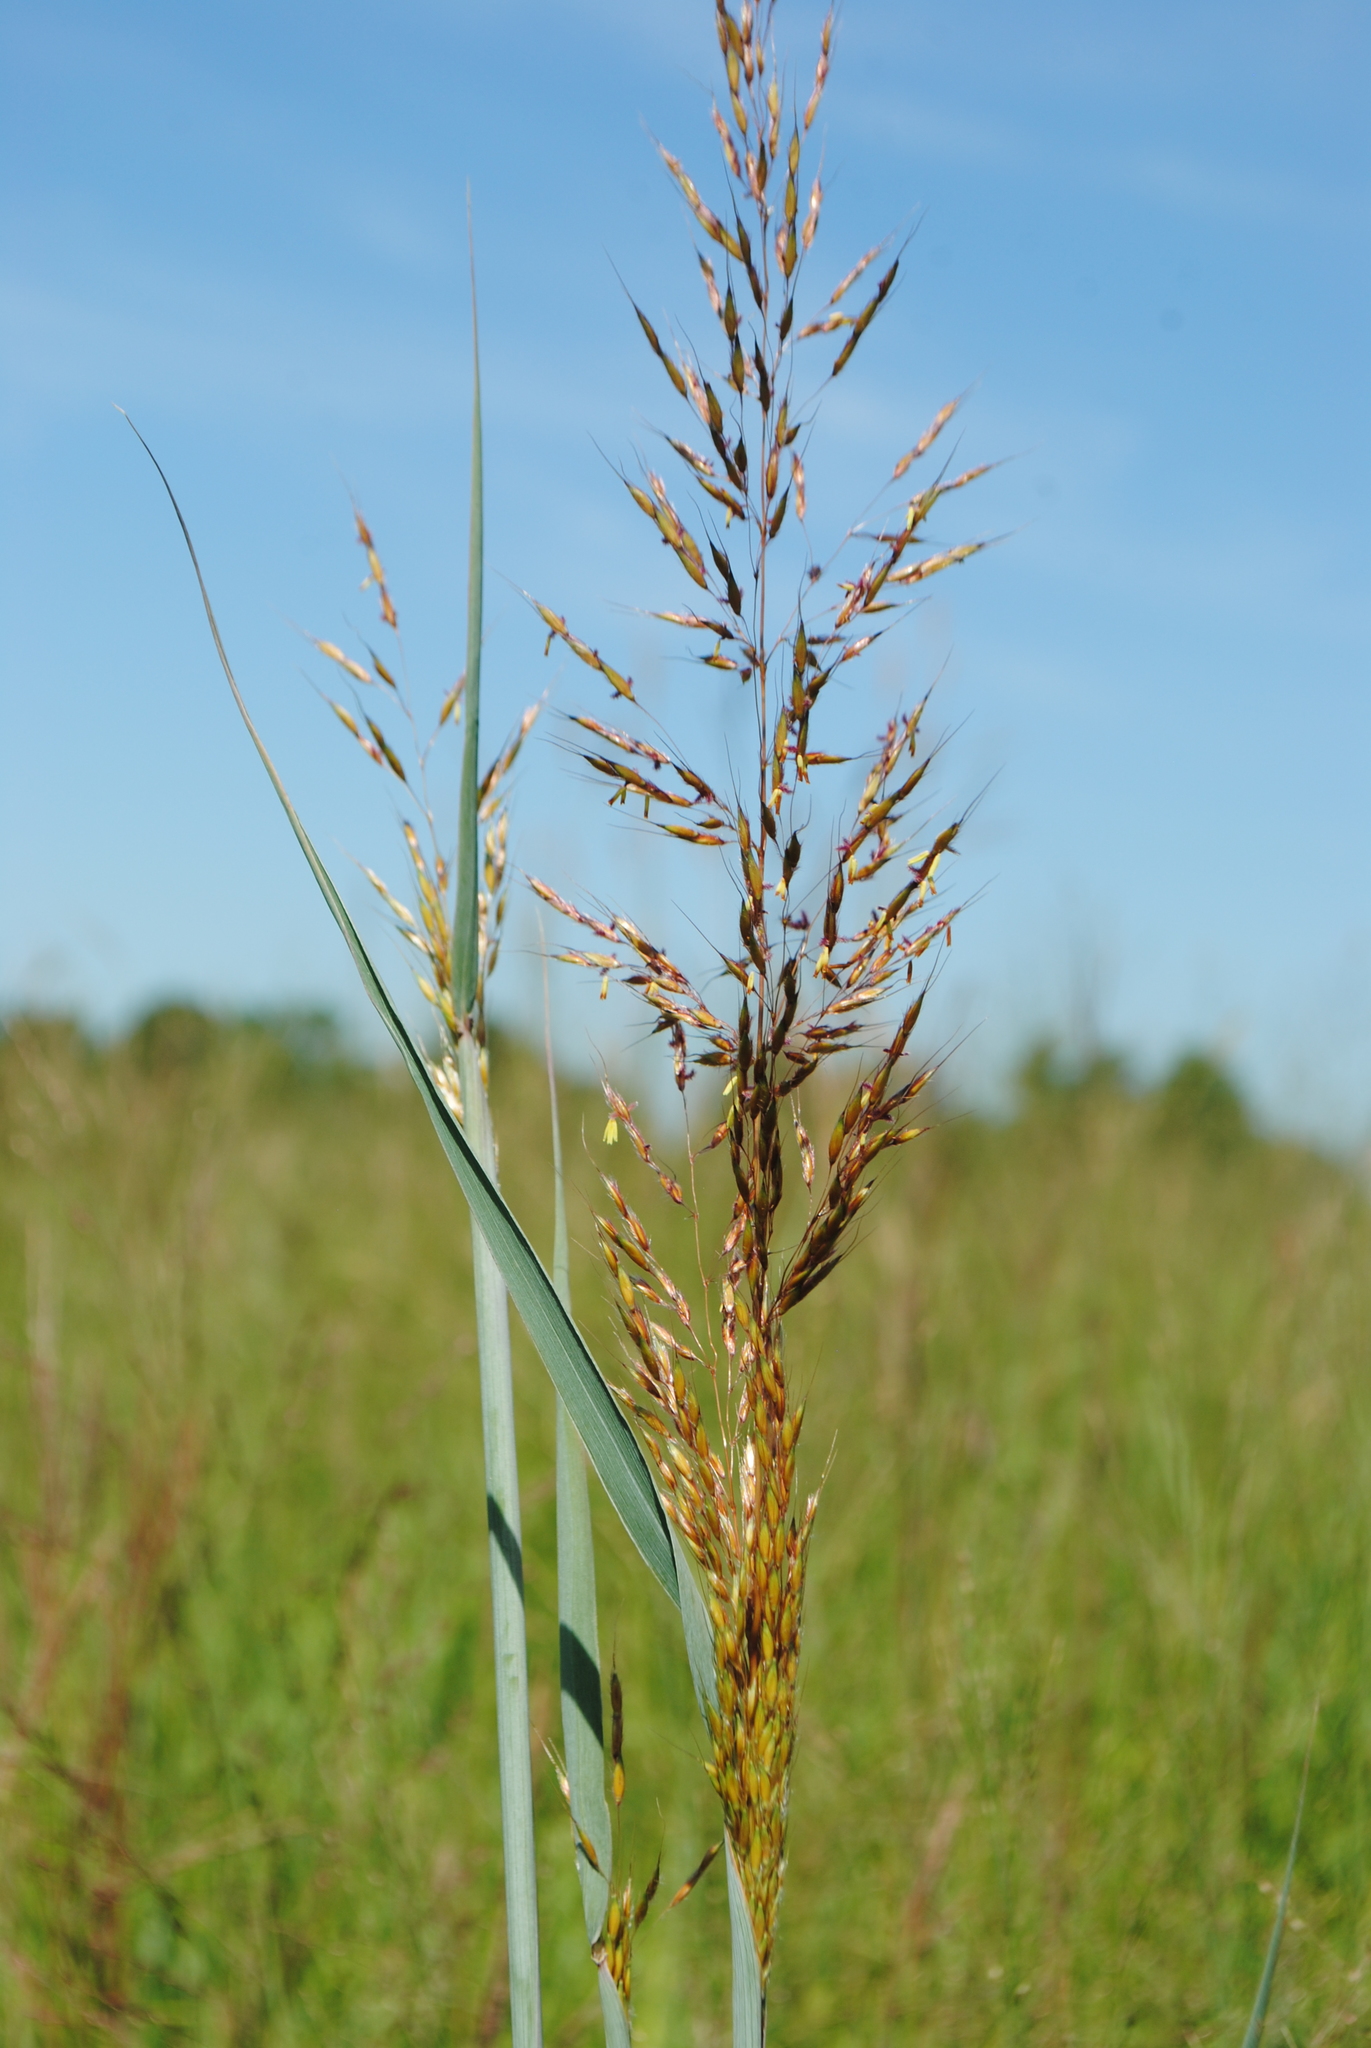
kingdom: Plantae
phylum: Tracheophyta
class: Liliopsida
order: Poales
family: Poaceae
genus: Sorghastrum
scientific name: Sorghastrum nutans
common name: Indian grass
